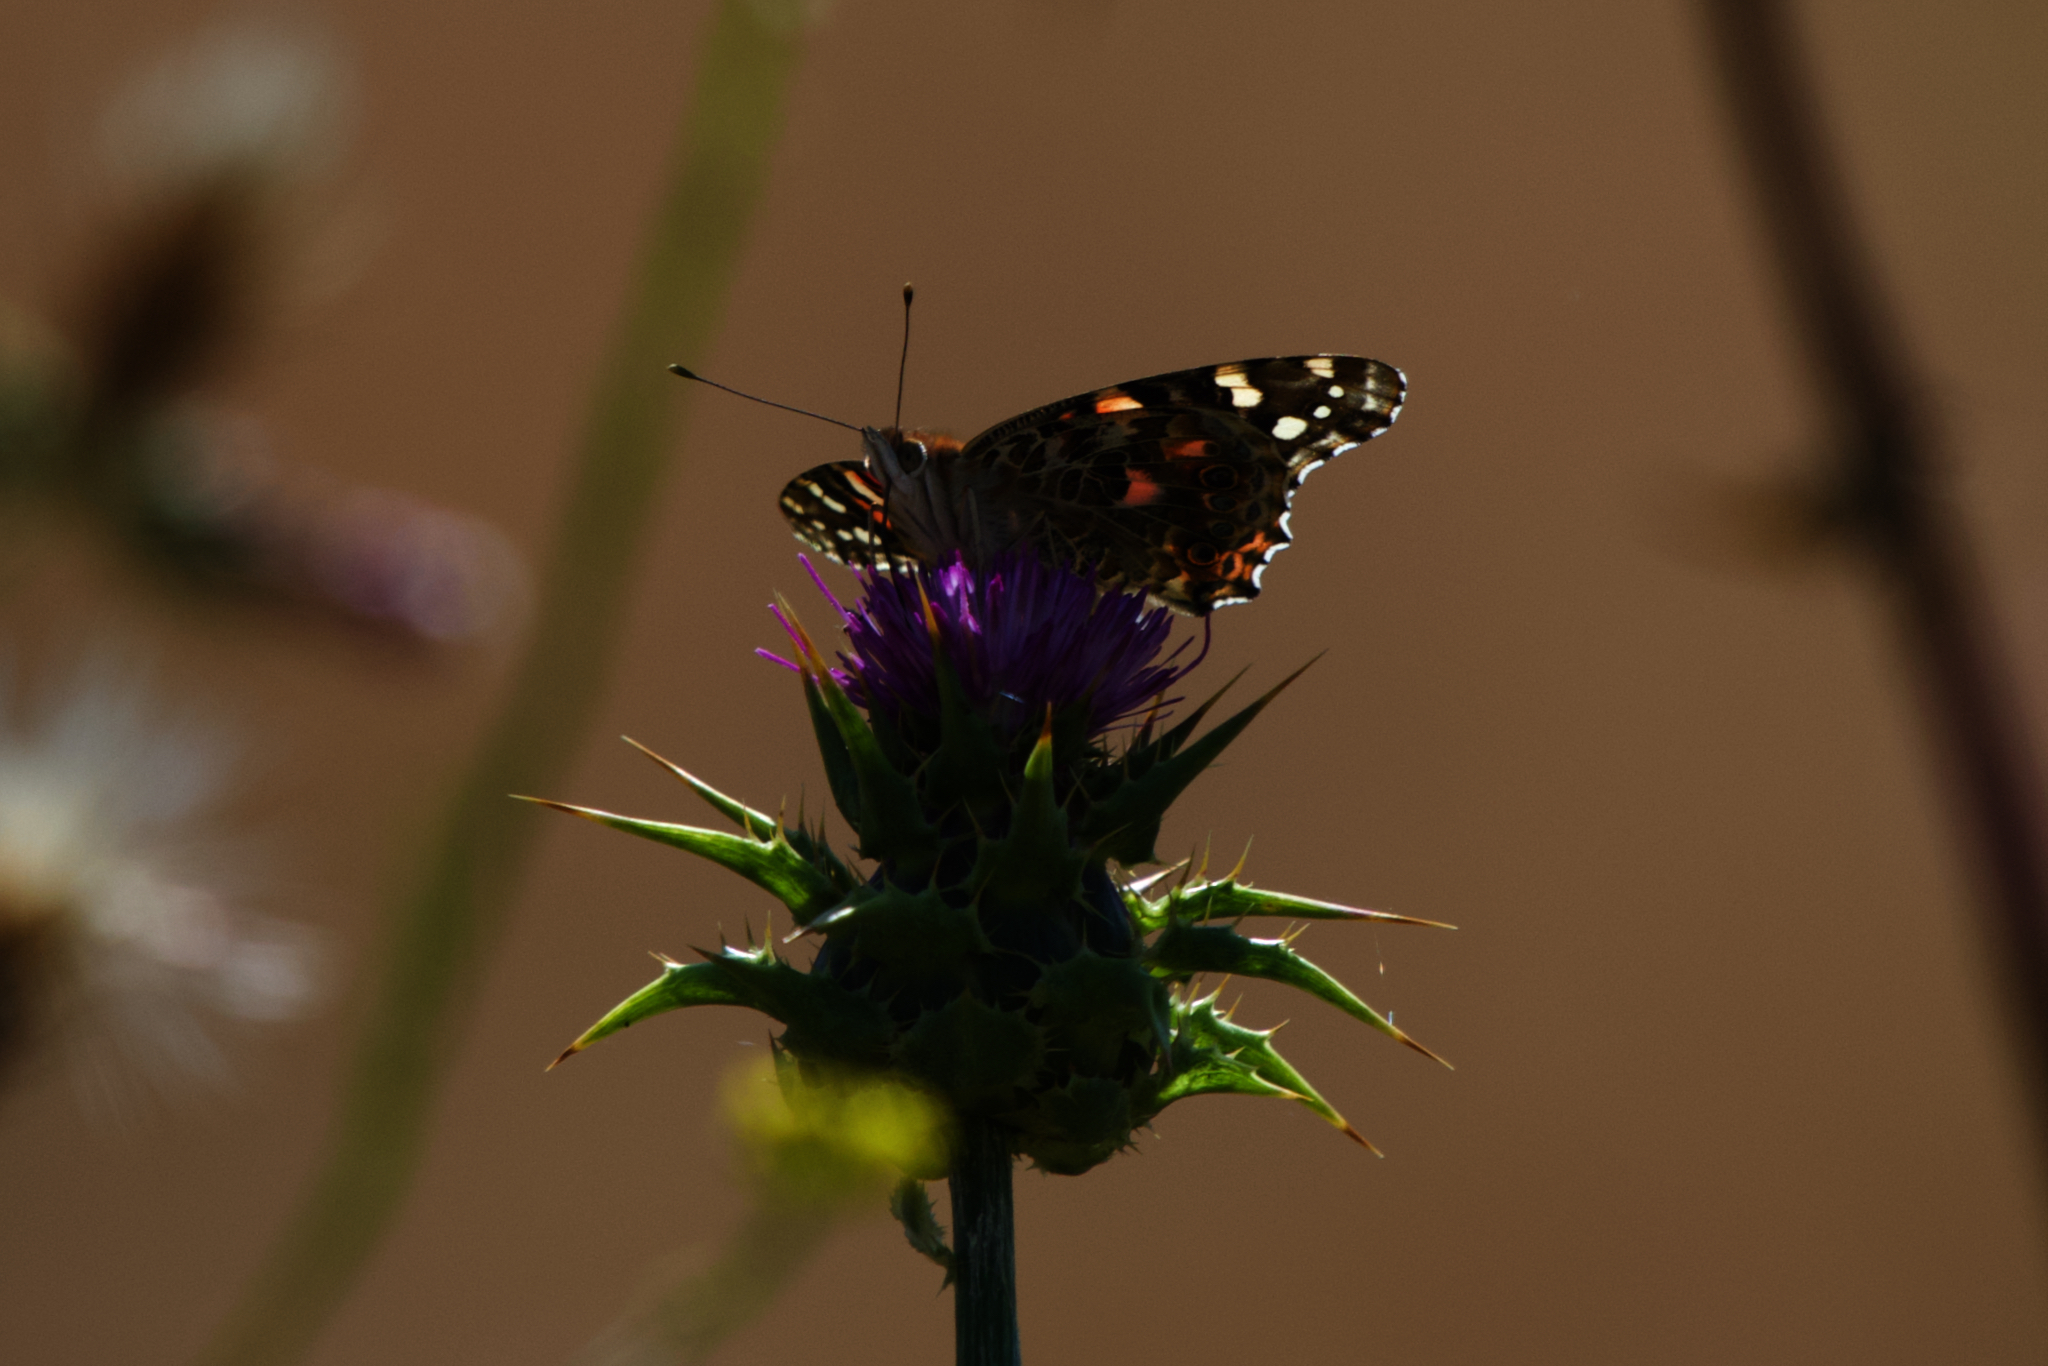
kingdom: Animalia
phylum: Arthropoda
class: Insecta
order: Lepidoptera
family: Nymphalidae
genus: Vanessa
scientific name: Vanessa cardui
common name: Painted lady
